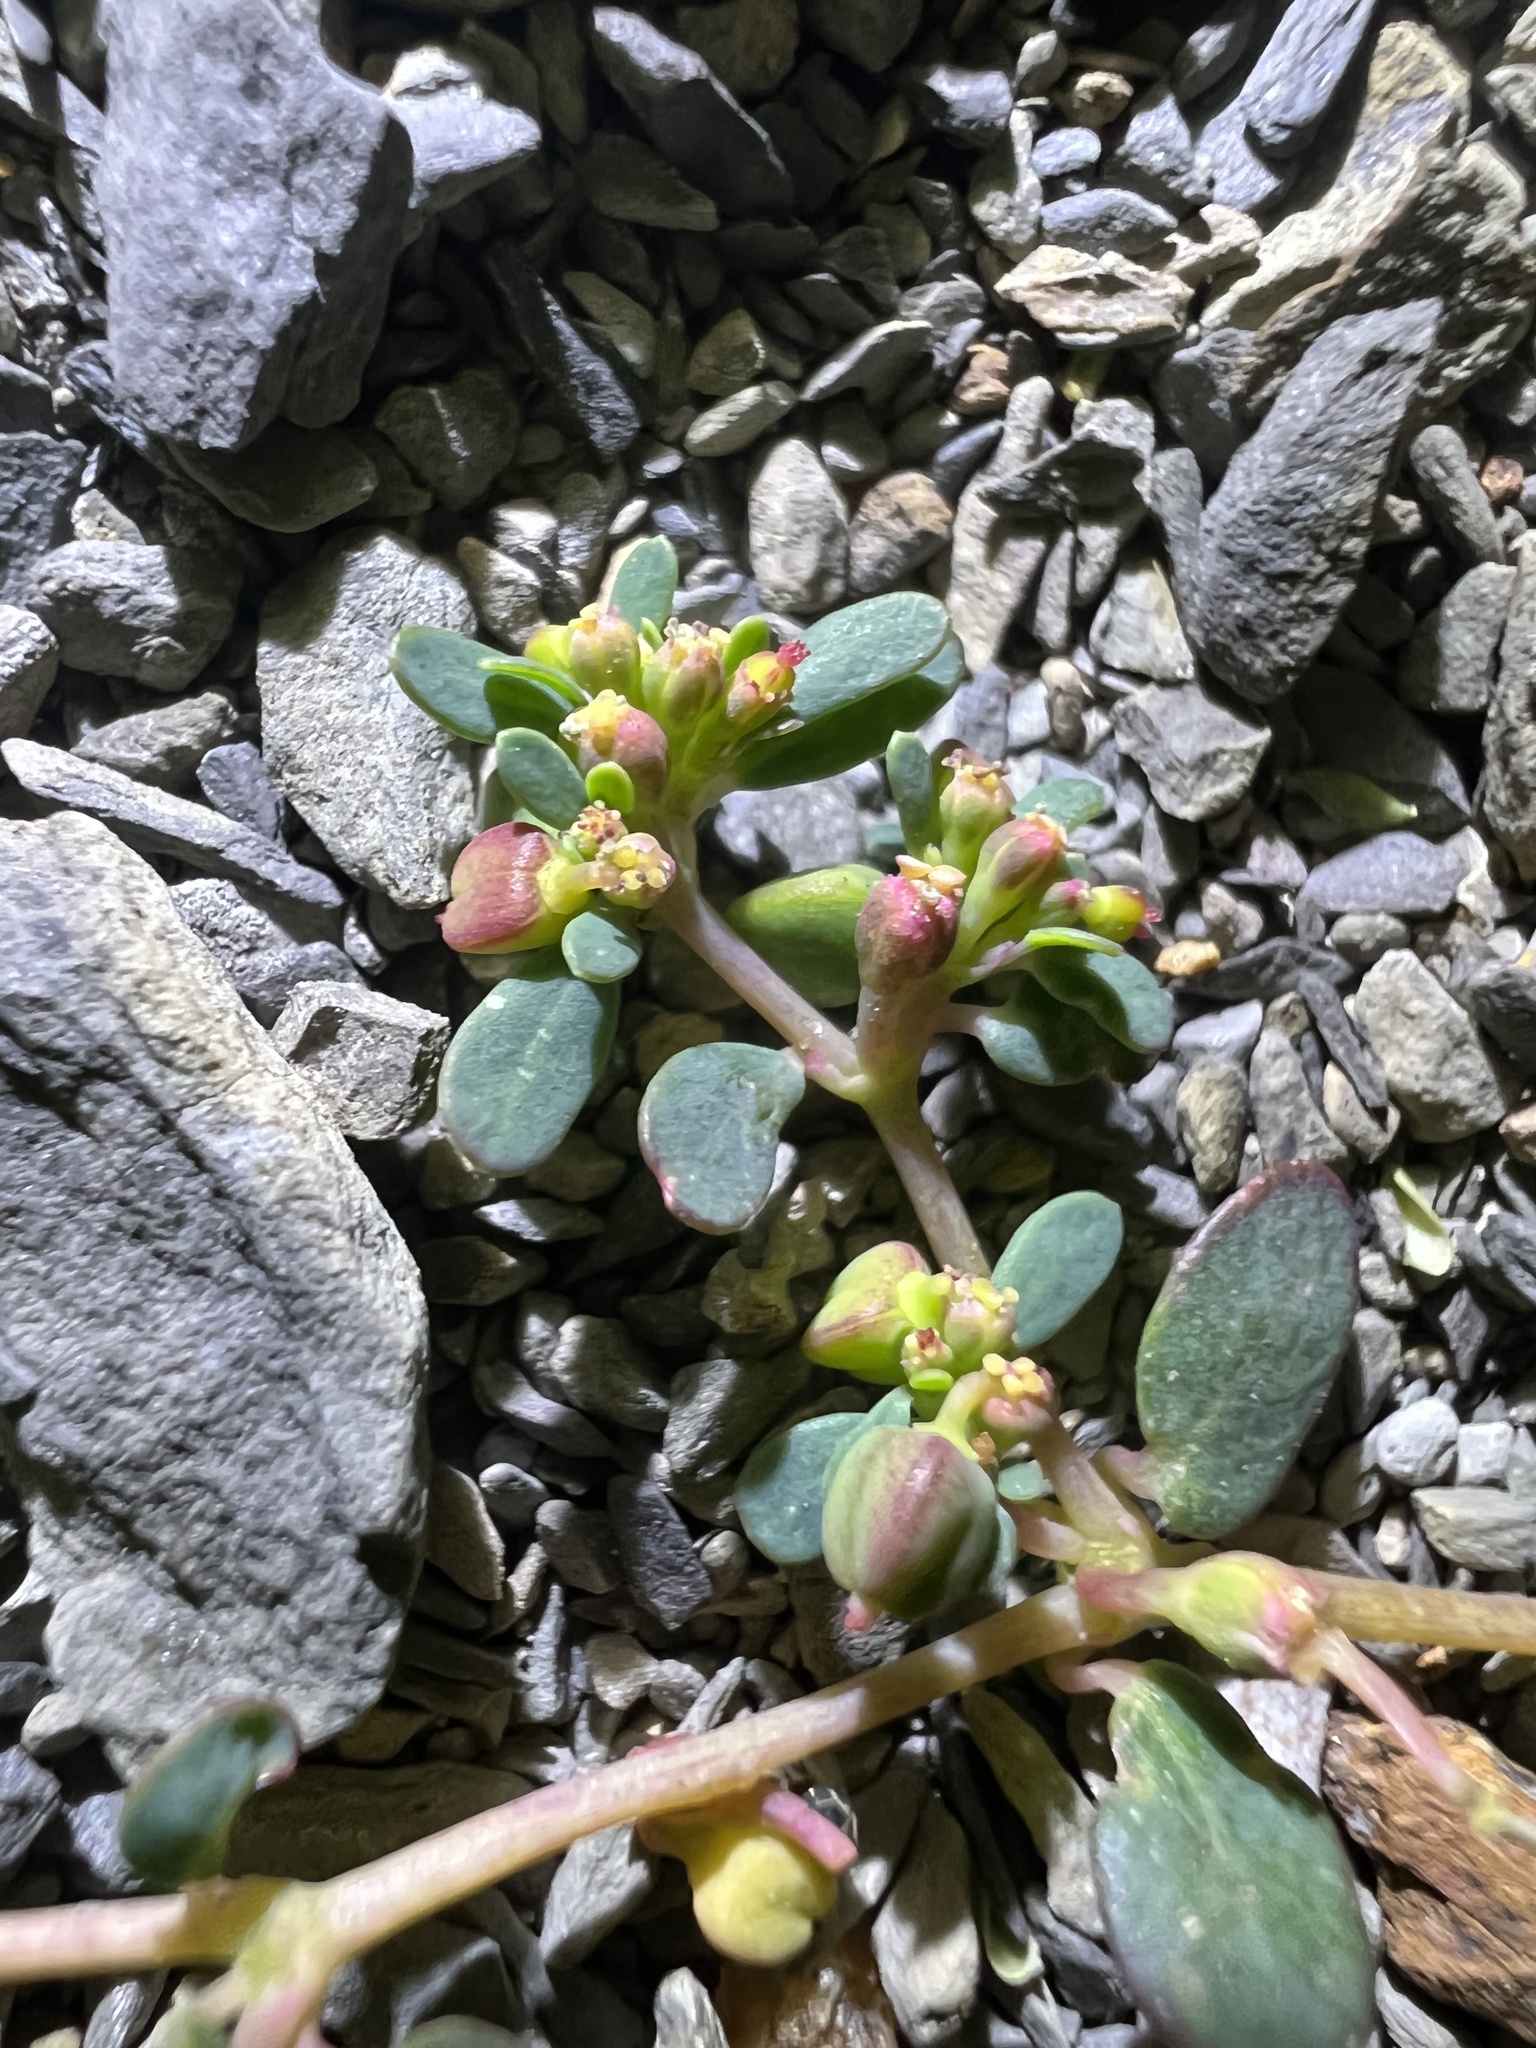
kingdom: Plantae
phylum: Tracheophyta
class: Magnoliopsida
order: Malpighiales
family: Euphorbiaceae
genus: Euphorbia
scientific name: Euphorbia cryptorubra
